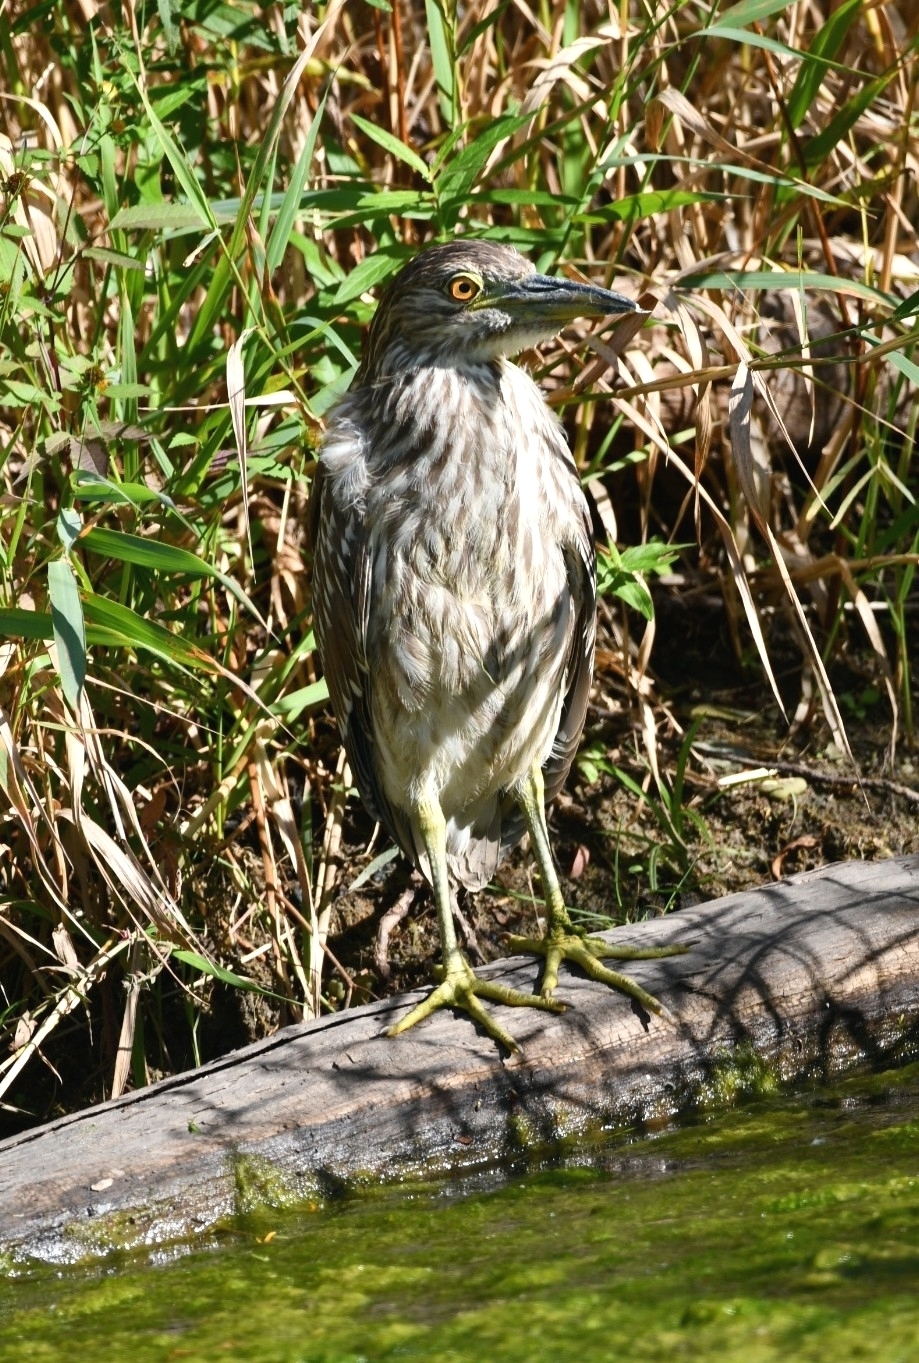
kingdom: Animalia
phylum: Chordata
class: Aves
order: Pelecaniformes
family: Ardeidae
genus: Nycticorax
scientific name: Nycticorax nycticorax
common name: Black-crowned night heron
